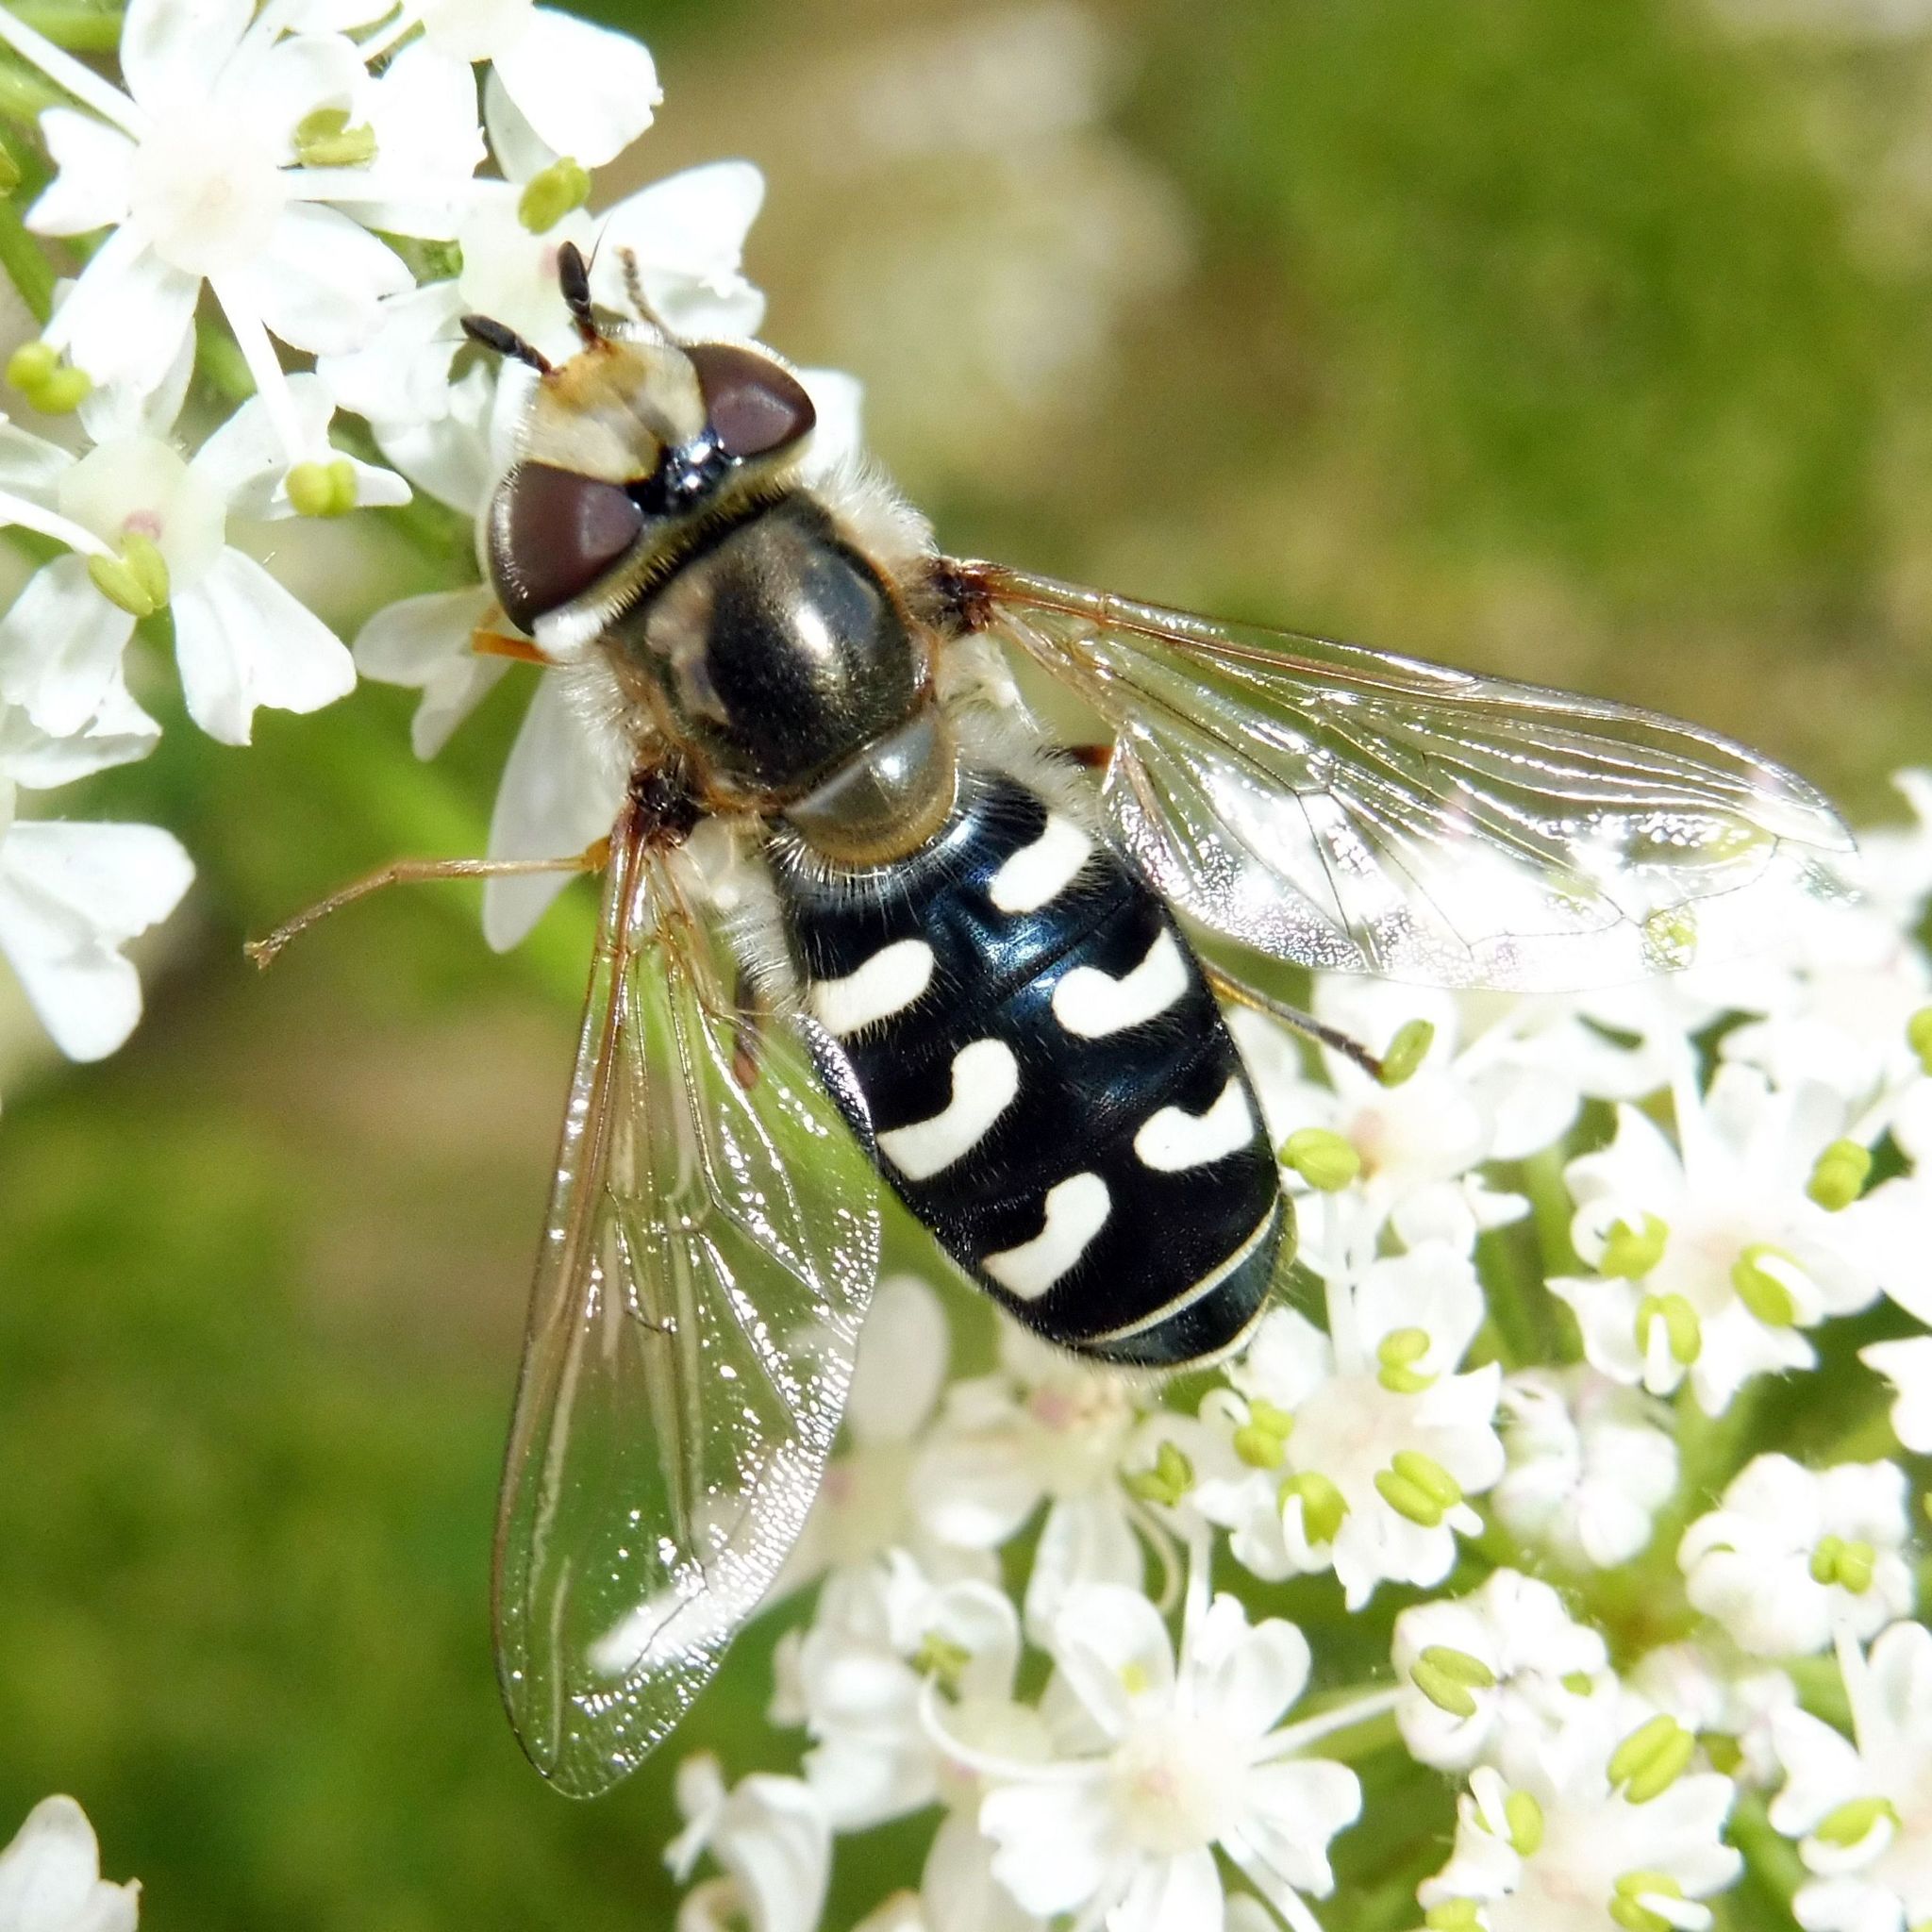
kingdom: Animalia
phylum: Arthropoda
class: Insecta
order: Diptera
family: Syrphidae
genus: Scaeva
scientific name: Scaeva pyrastri
